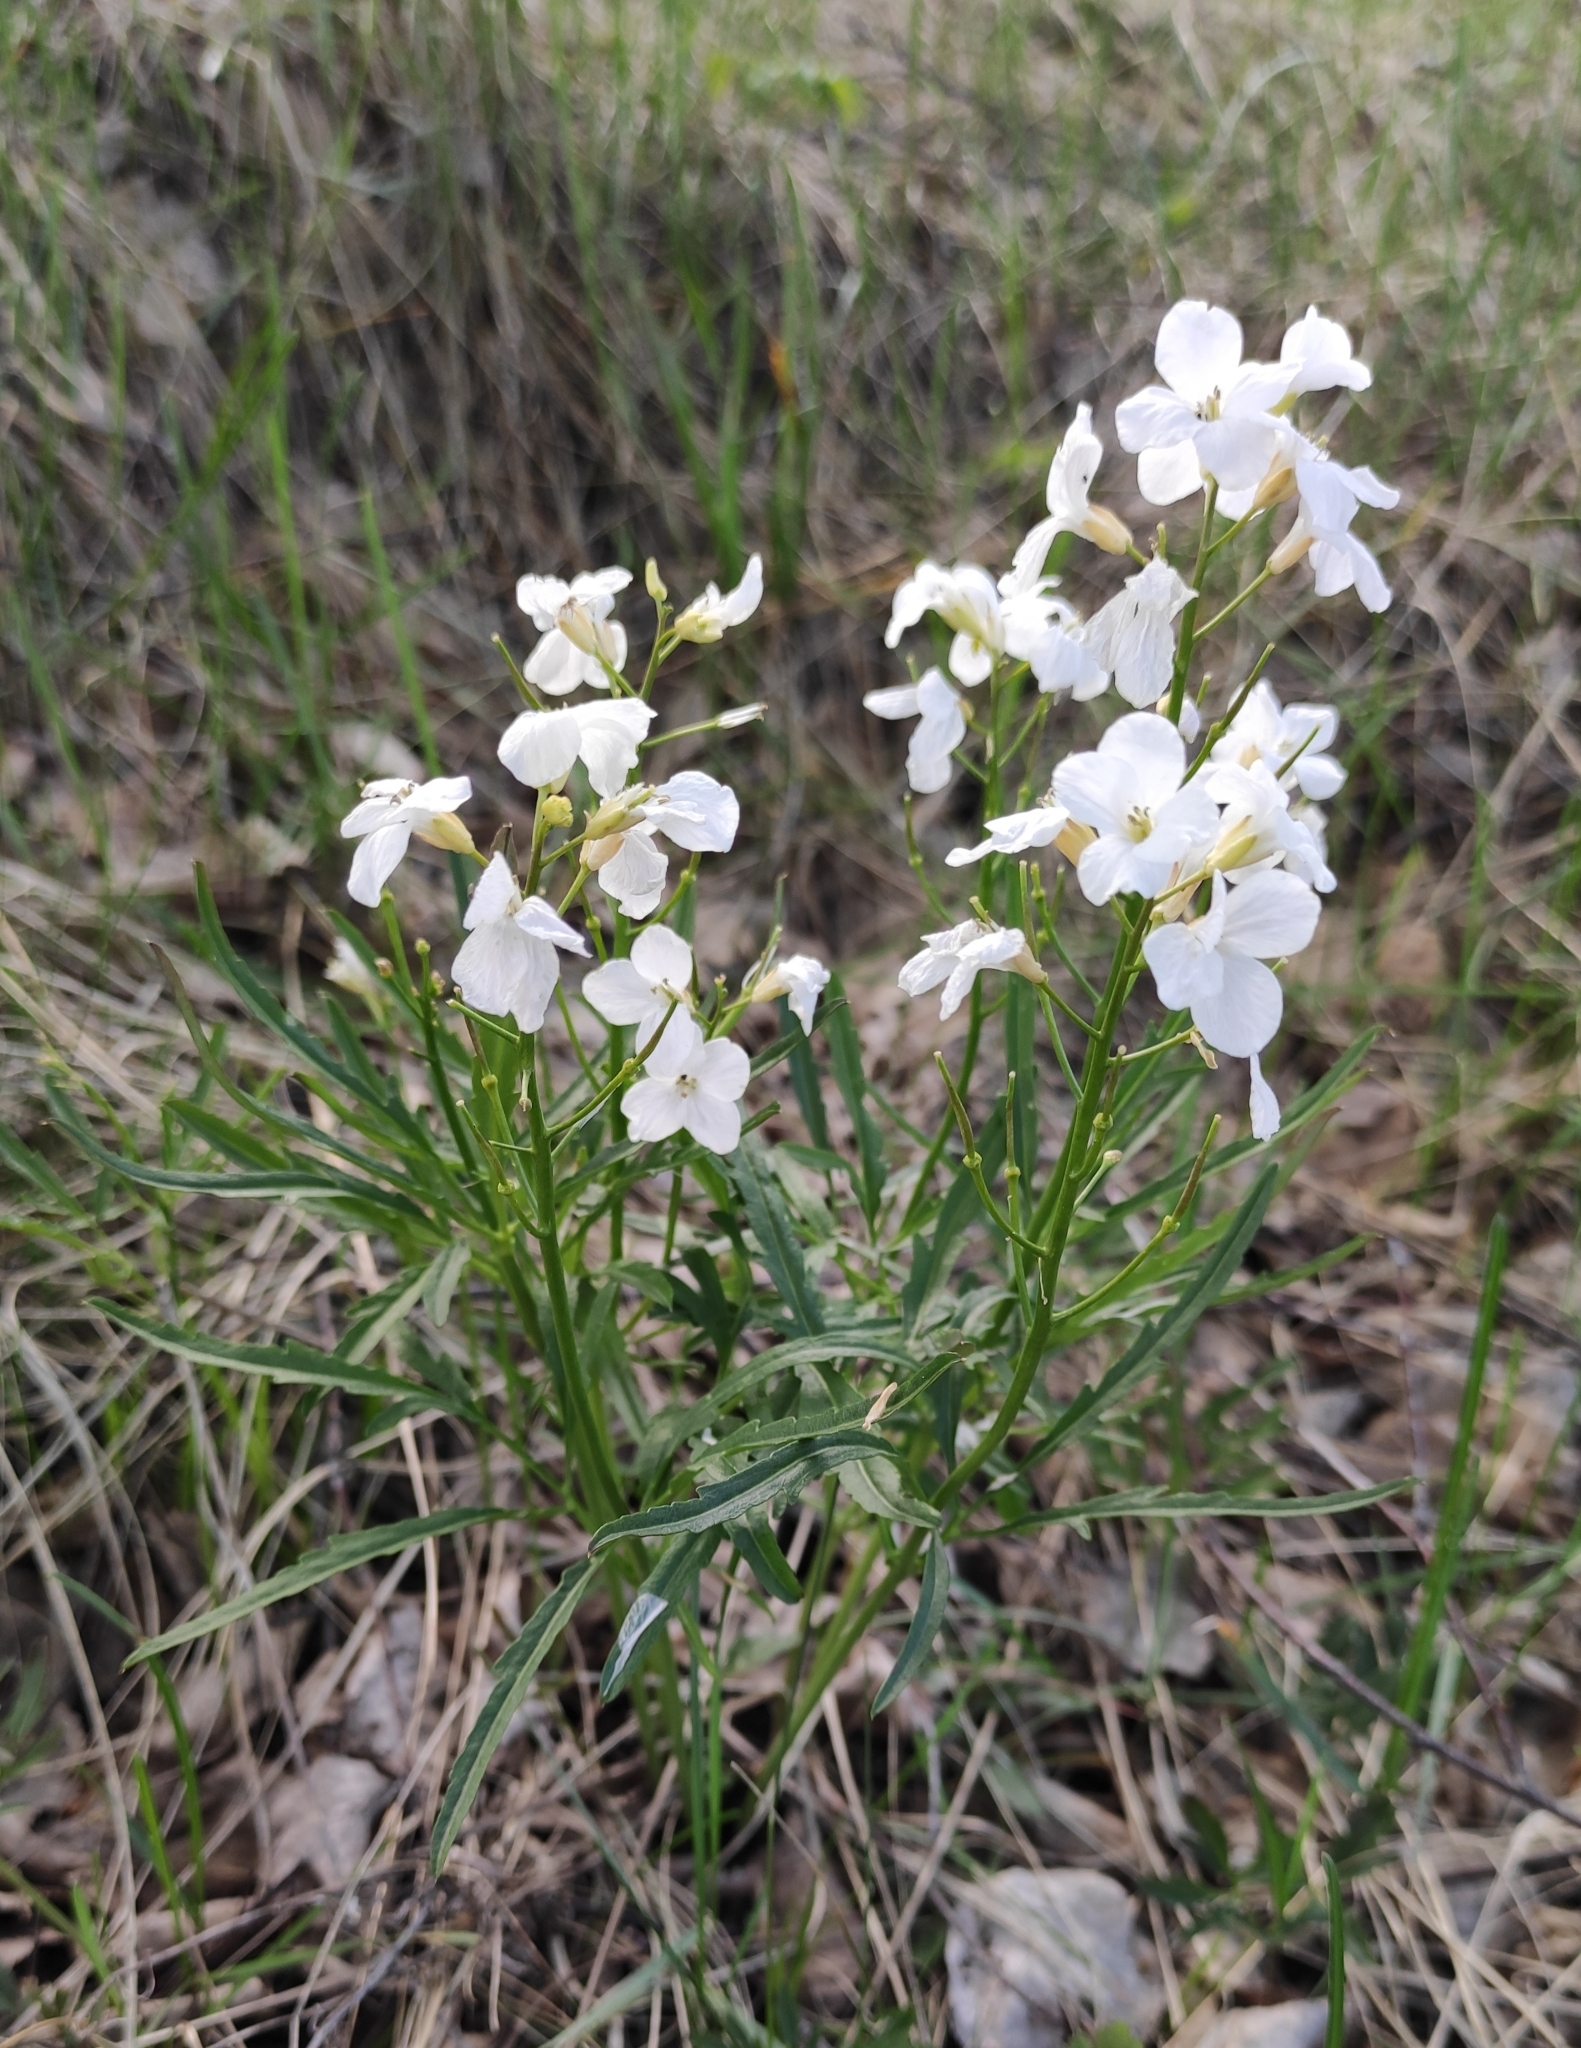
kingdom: Plantae
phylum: Tracheophyta
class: Magnoliopsida
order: Brassicales
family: Brassicaceae
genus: Cardamine
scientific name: Cardamine trifida
